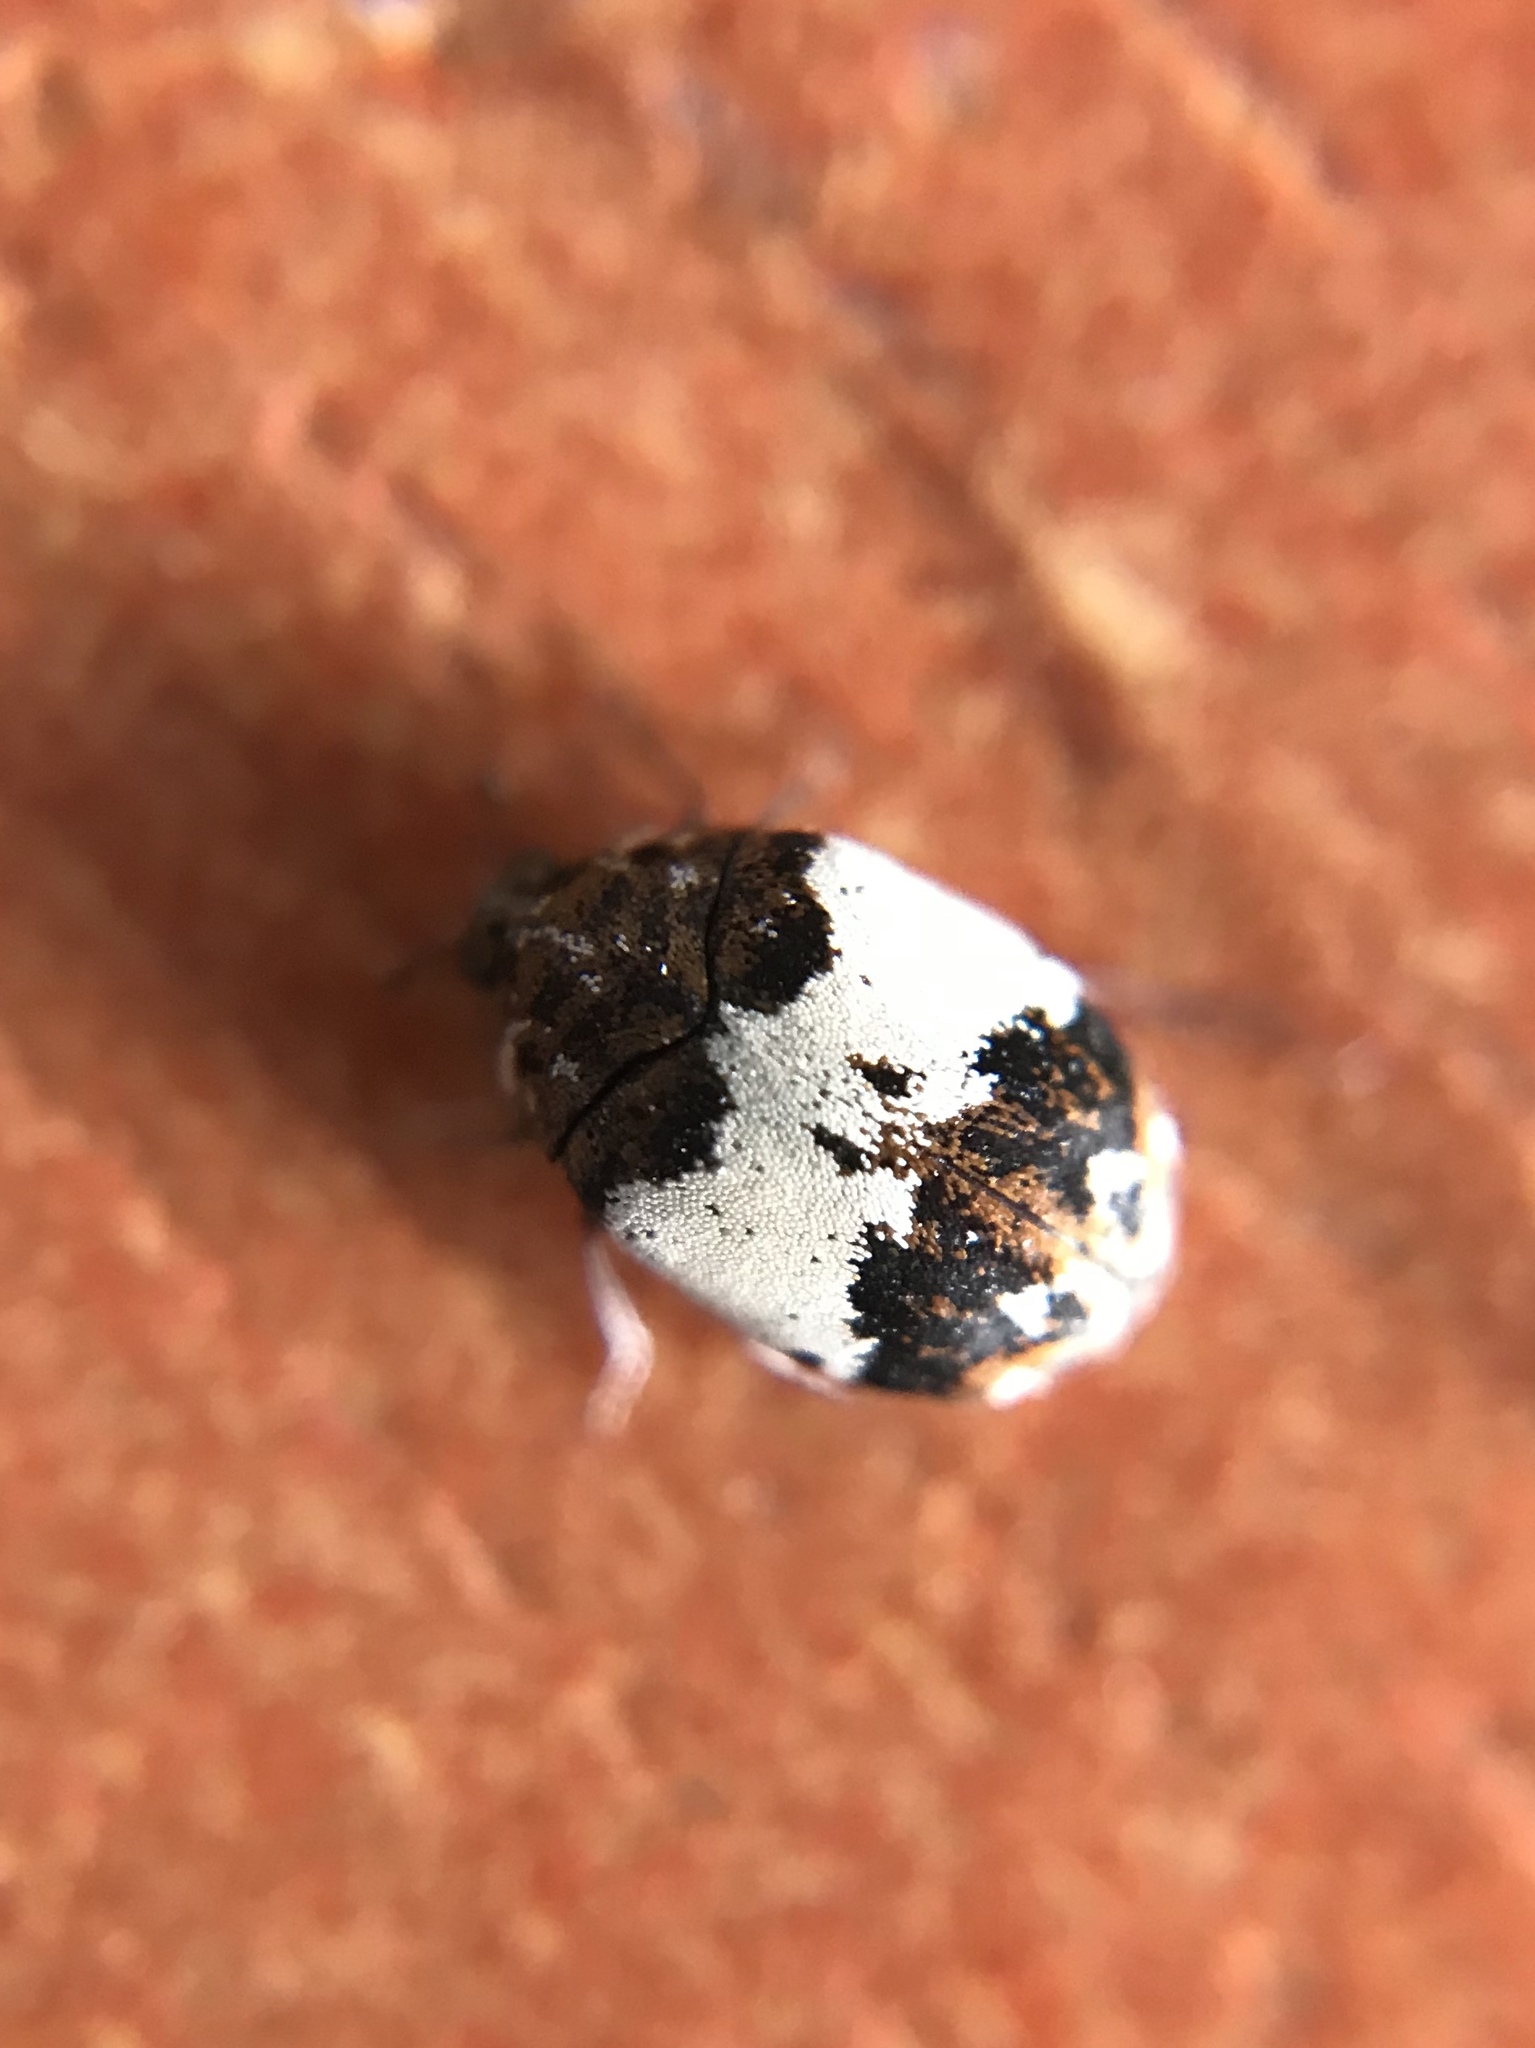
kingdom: Animalia
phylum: Arthropoda
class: Insecta
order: Coleoptera
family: Dermestidae
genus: Anthrenus
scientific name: Anthrenus latefasciatus
